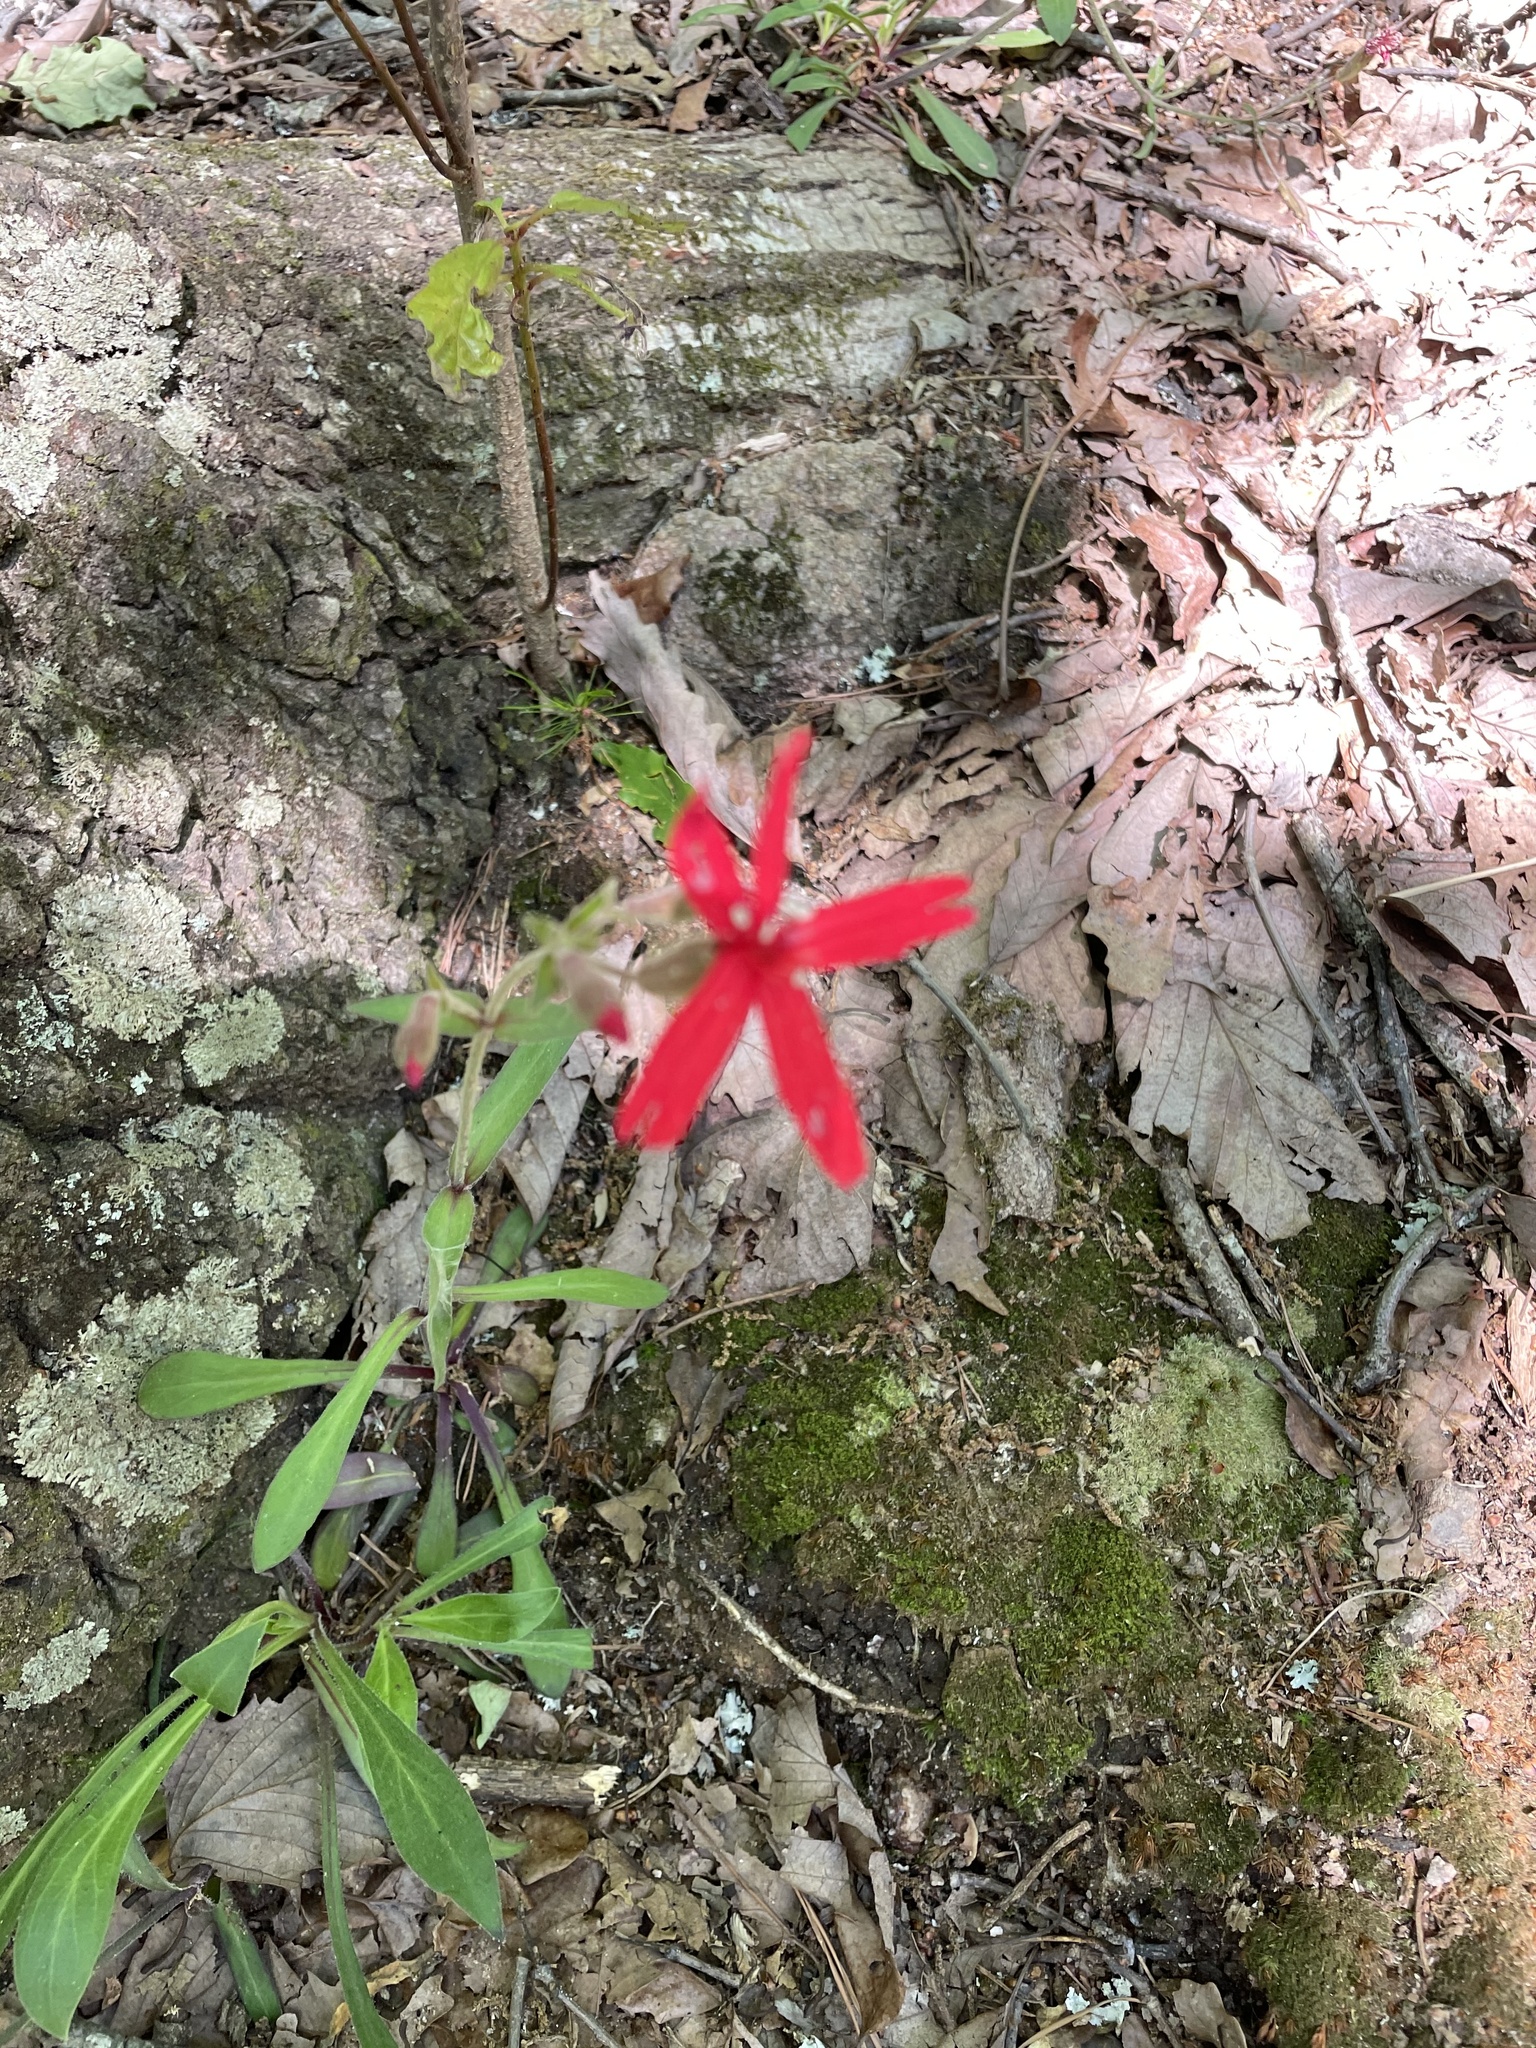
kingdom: Plantae
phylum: Tracheophyta
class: Magnoliopsida
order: Caryophyllales
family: Caryophyllaceae
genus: Silene
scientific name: Silene virginica
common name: Fire-pink
